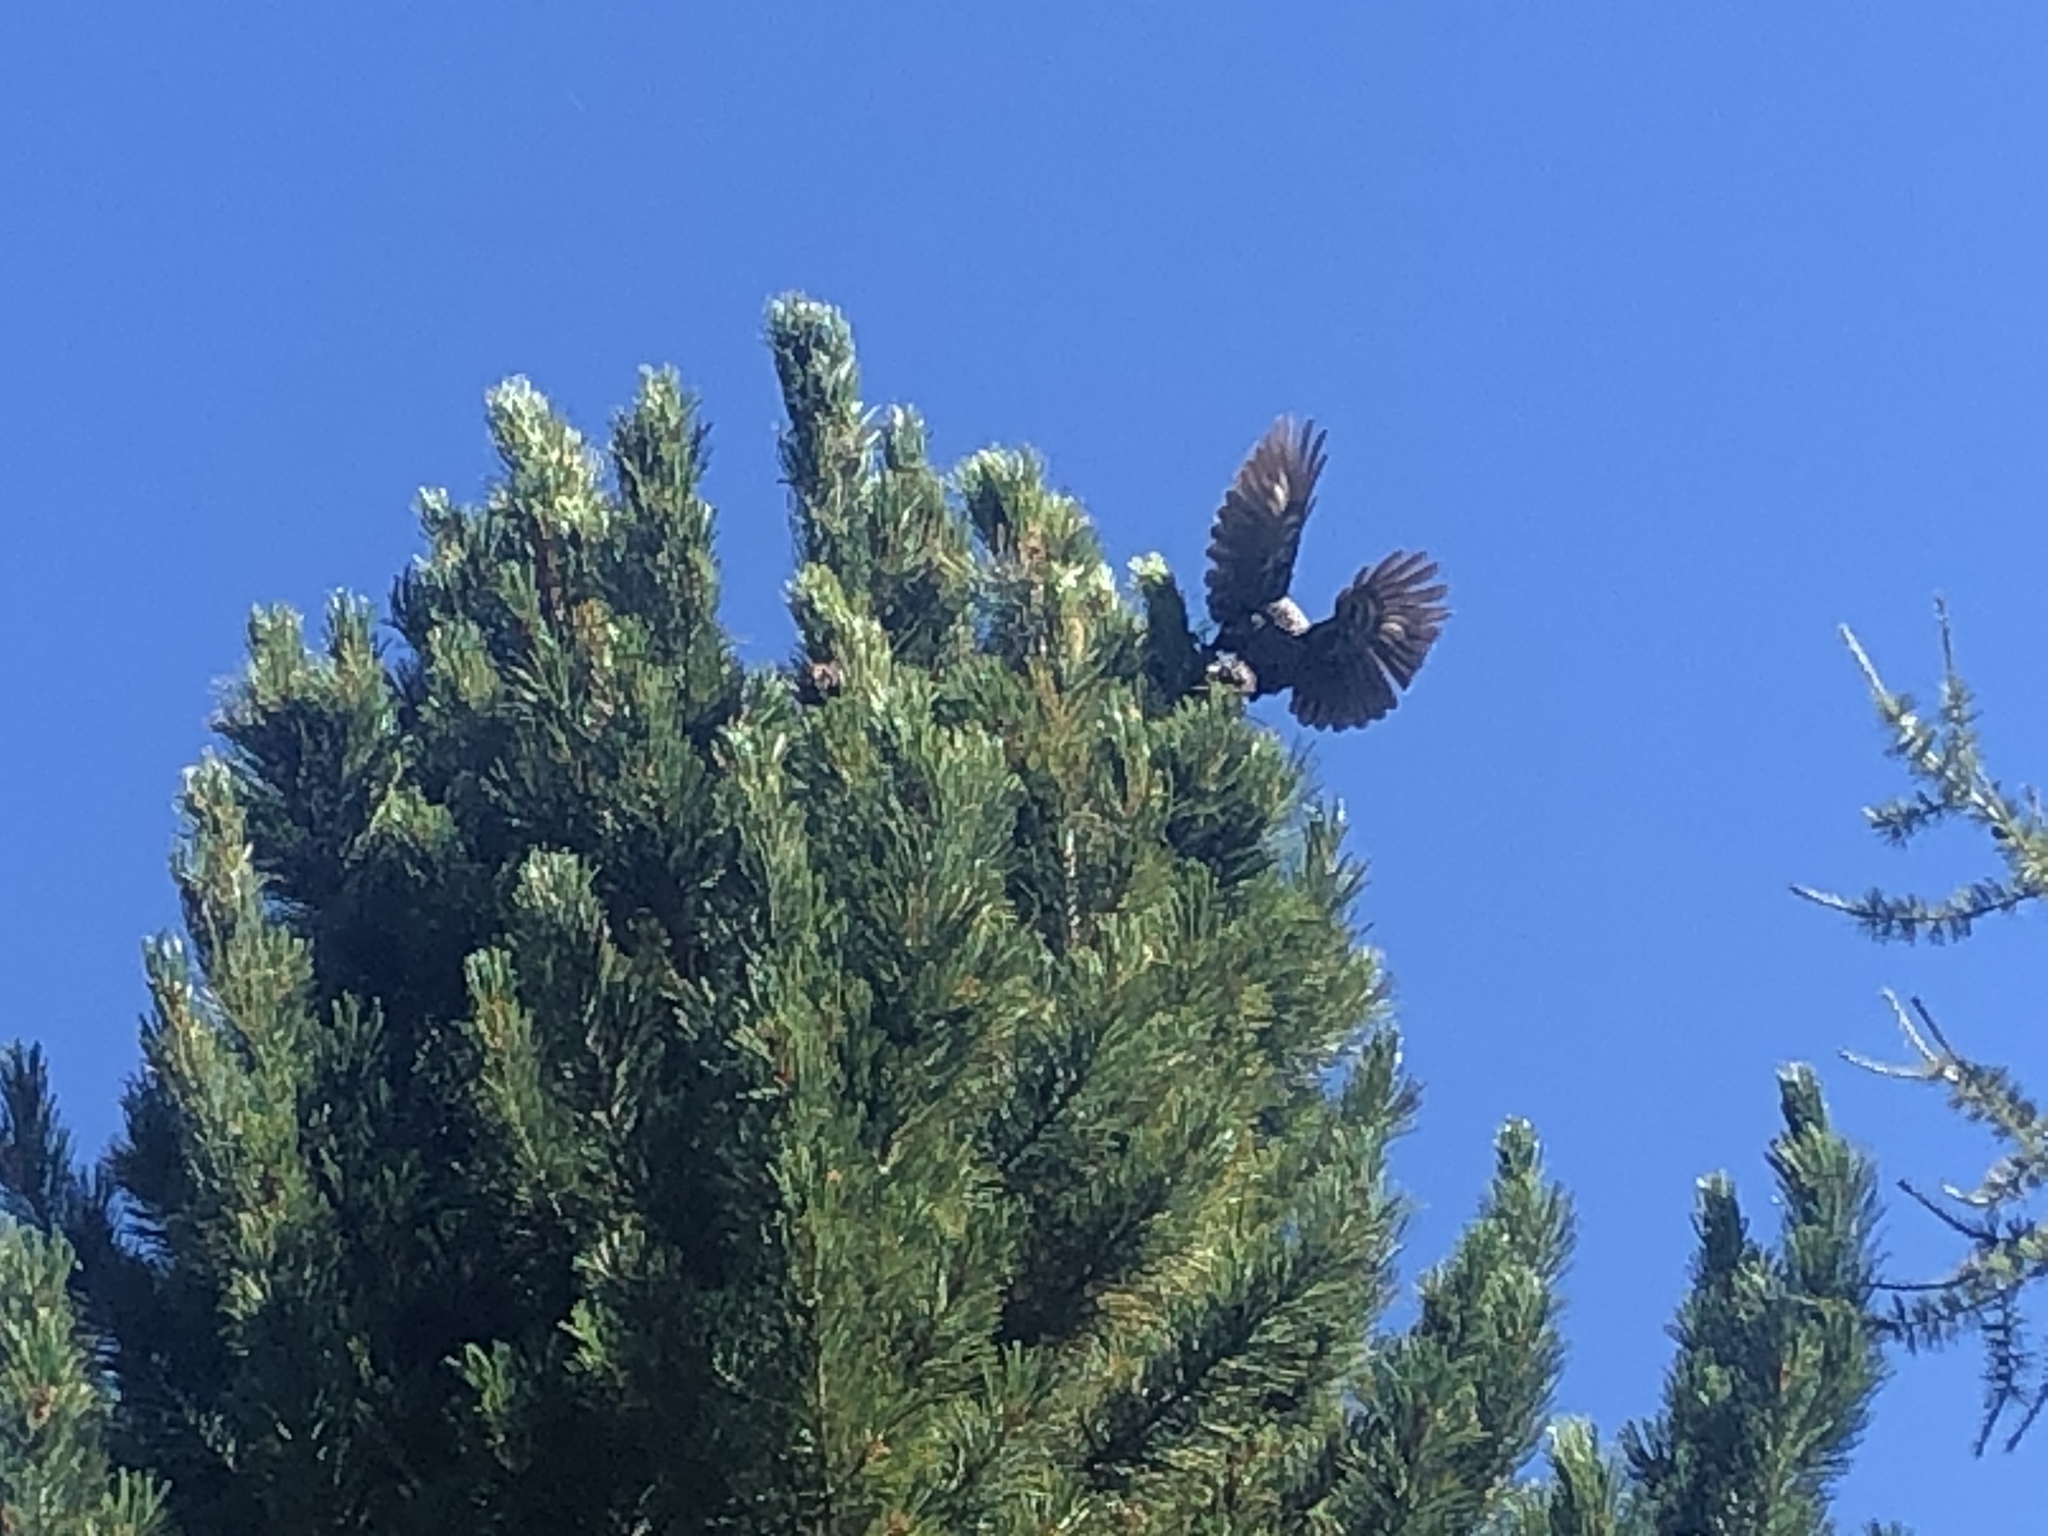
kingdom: Animalia
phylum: Chordata
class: Aves
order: Passeriformes
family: Corvidae
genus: Nucifraga
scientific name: Nucifraga caryocatactes
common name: Spotted nutcracker
